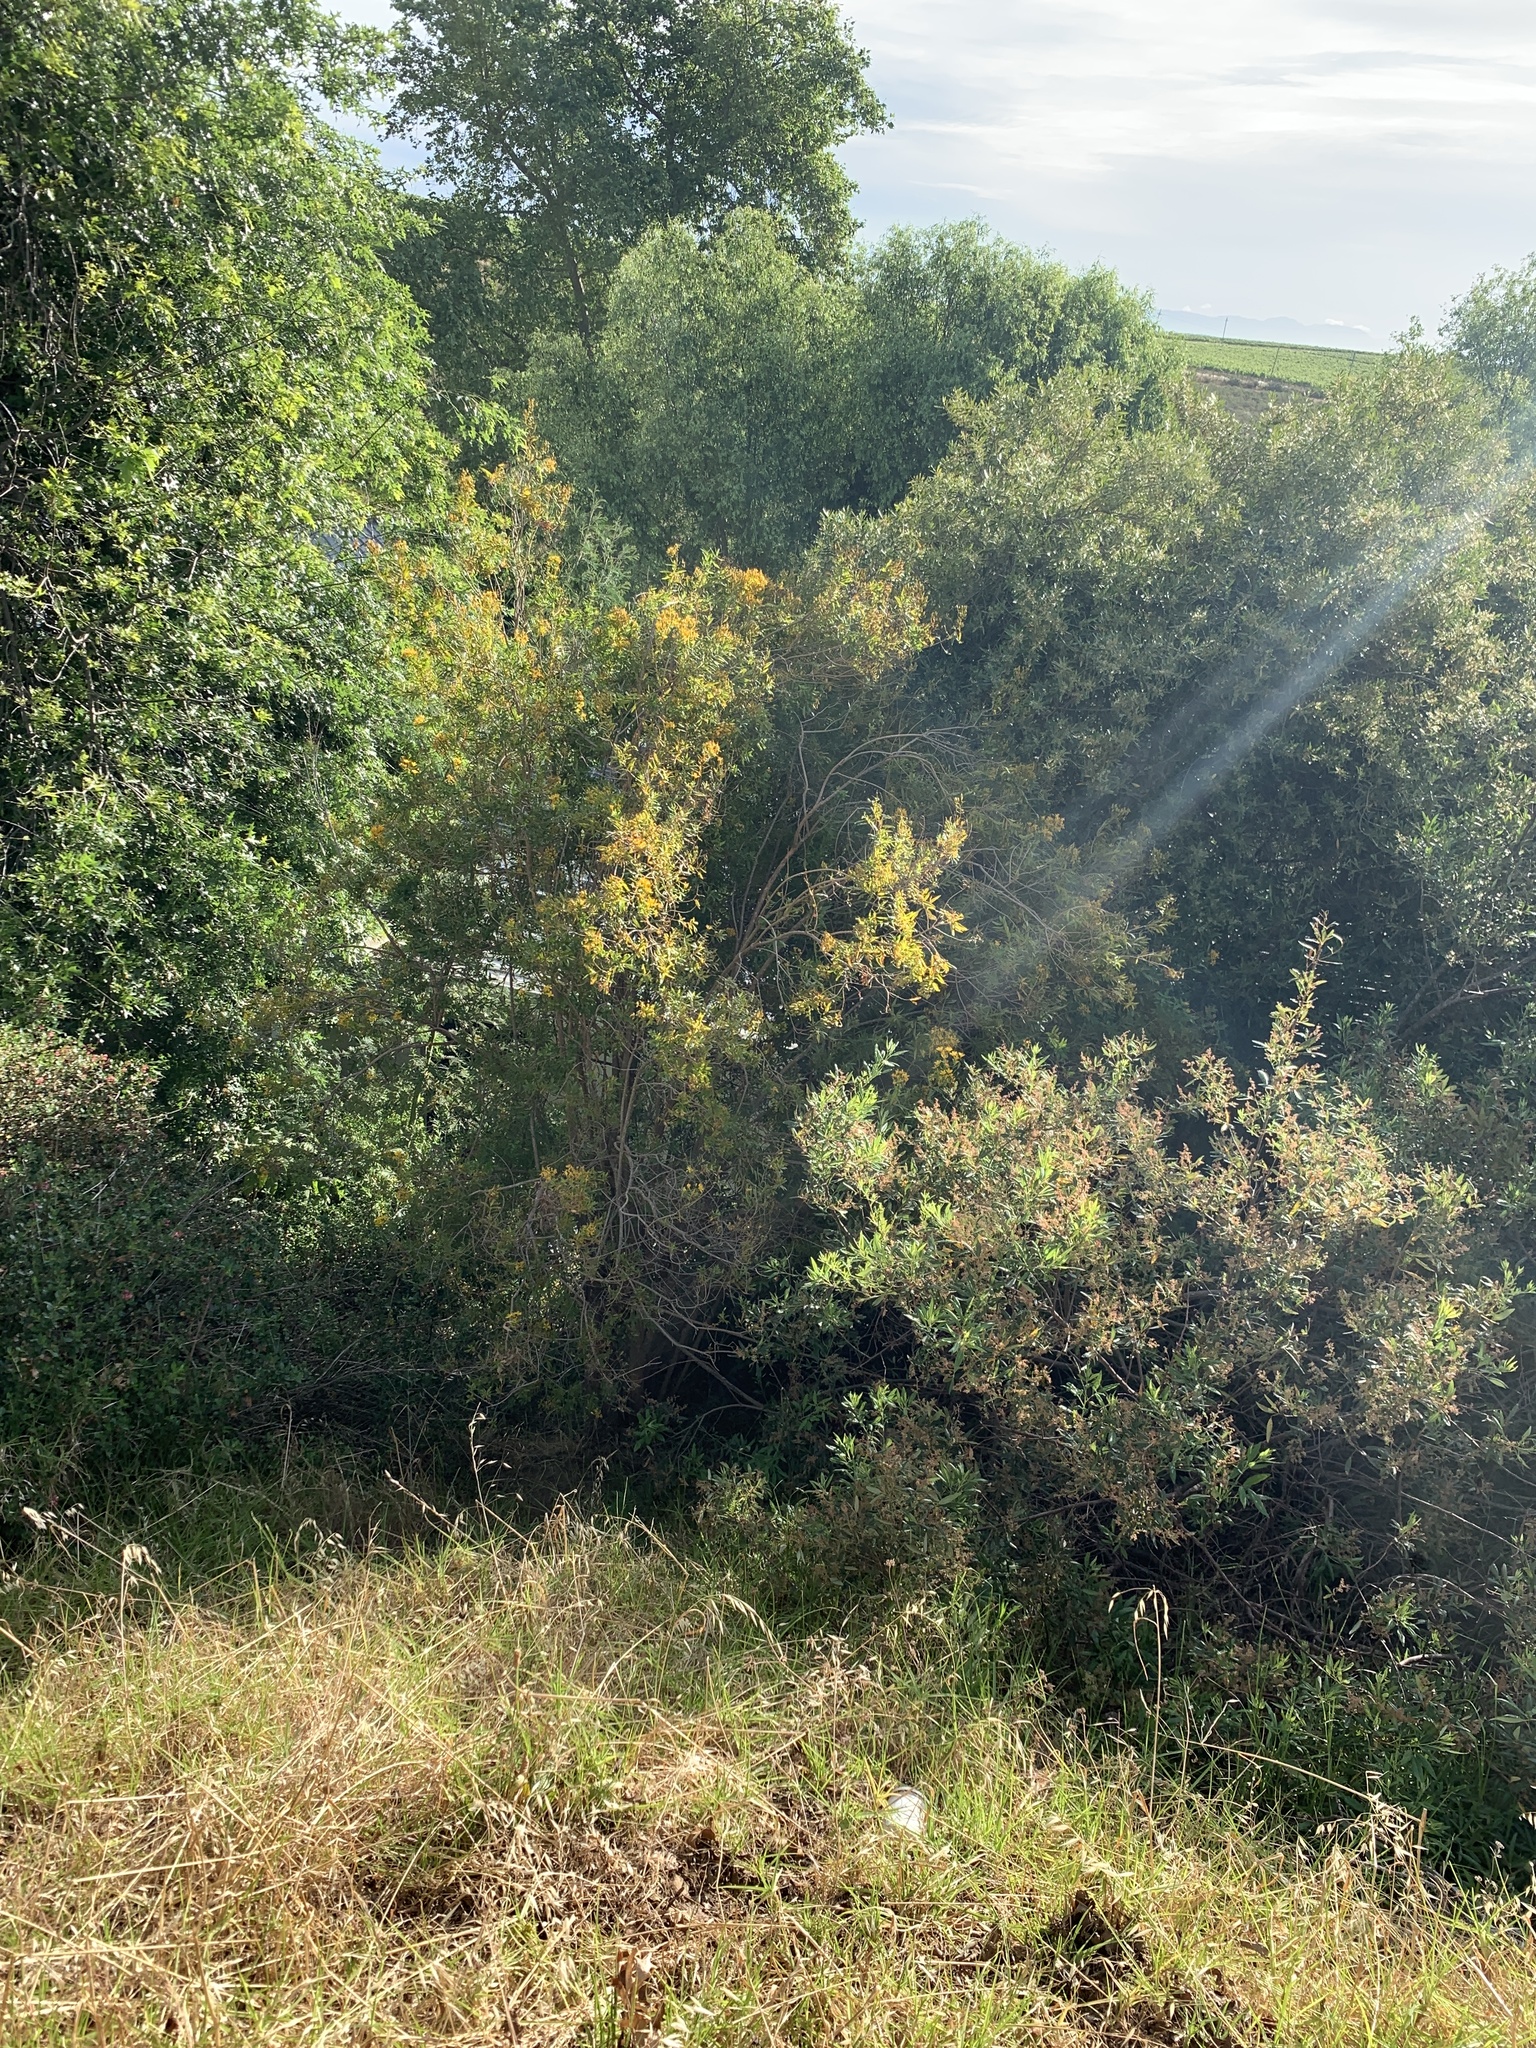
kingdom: Plantae
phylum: Tracheophyta
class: Magnoliopsida
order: Malpighiales
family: Hypericaceae
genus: Hypericum
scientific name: Hypericum canariense
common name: Canary island st. johnswort
